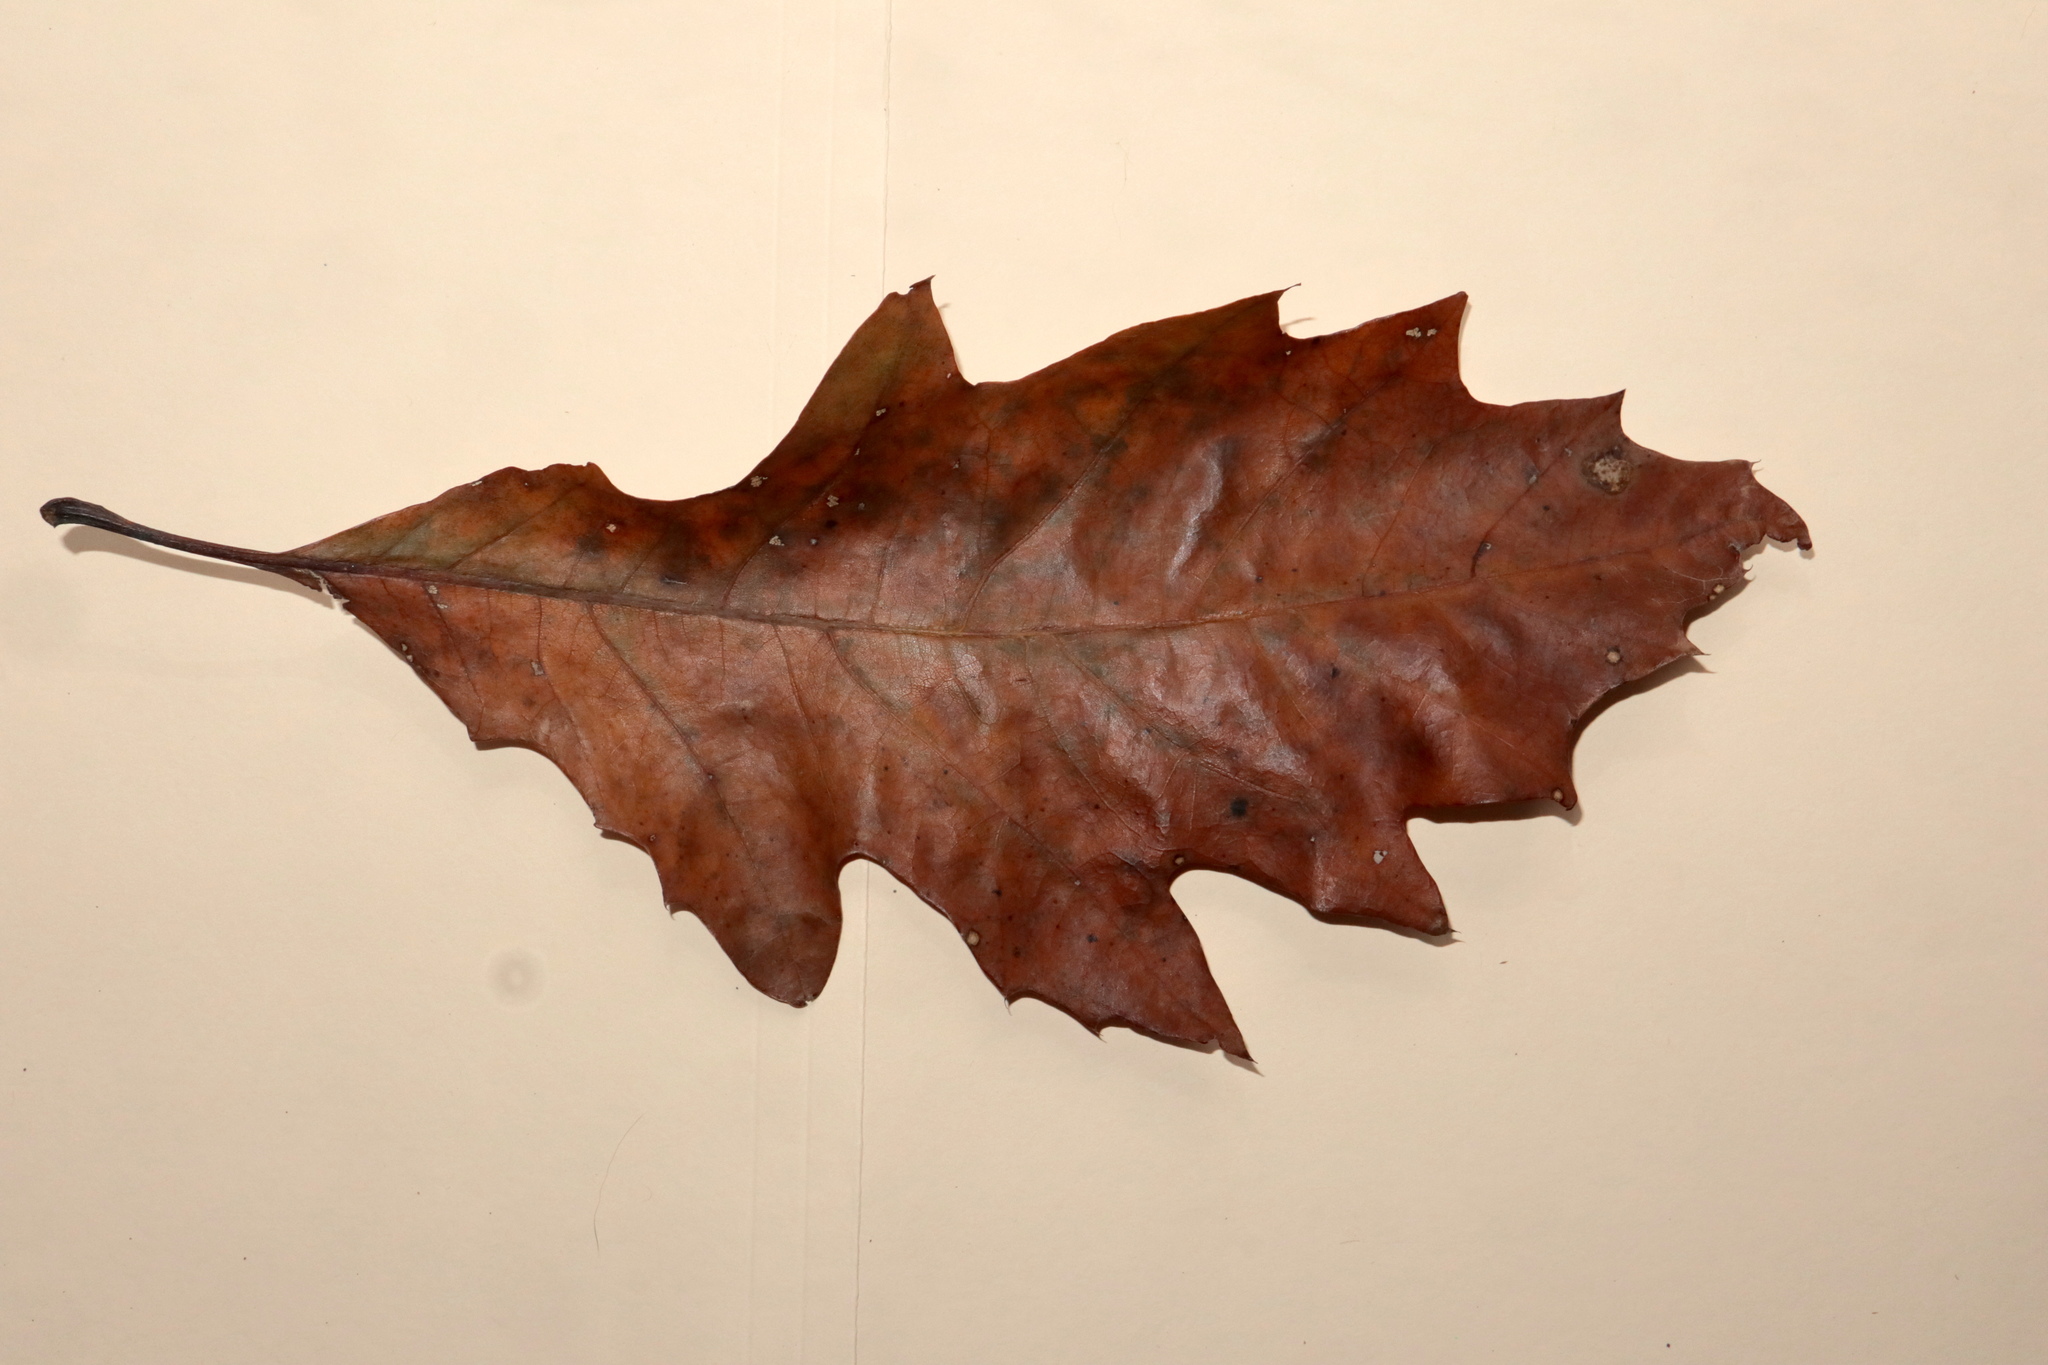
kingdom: Plantae
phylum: Tracheophyta
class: Magnoliopsida
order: Fagales
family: Fagaceae
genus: Quercus
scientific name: Quercus rubra
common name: Red oak
